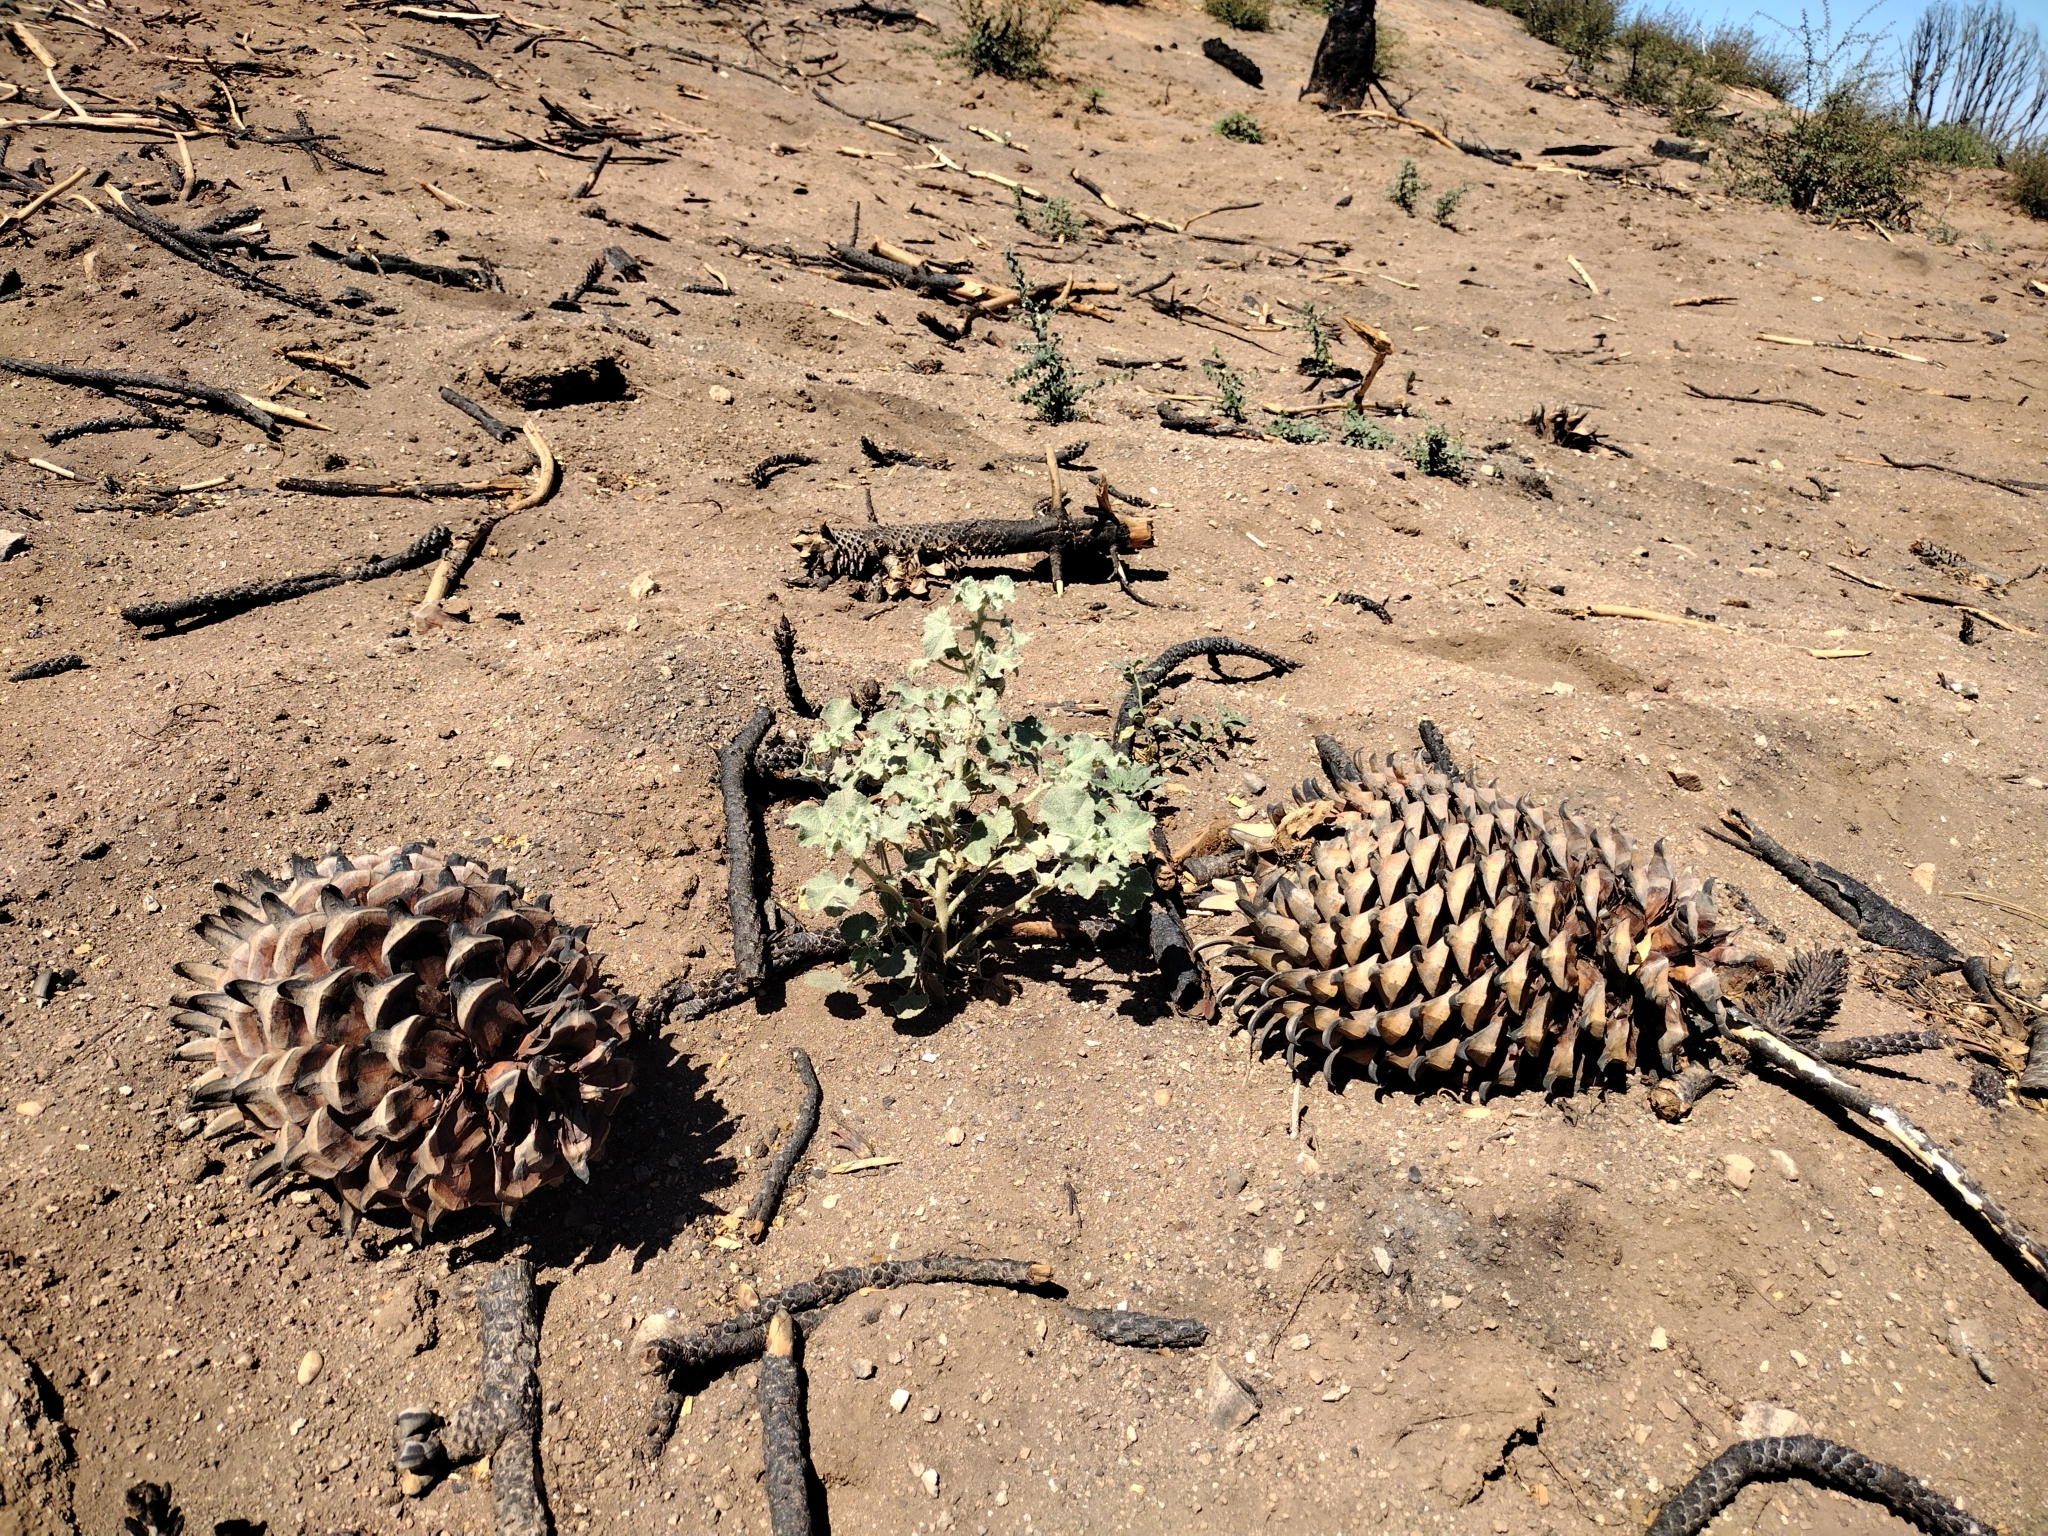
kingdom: Plantae
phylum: Tracheophyta
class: Magnoliopsida
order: Malvales
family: Malvaceae
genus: Malacothamnus
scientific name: Malacothamnus fremontii
